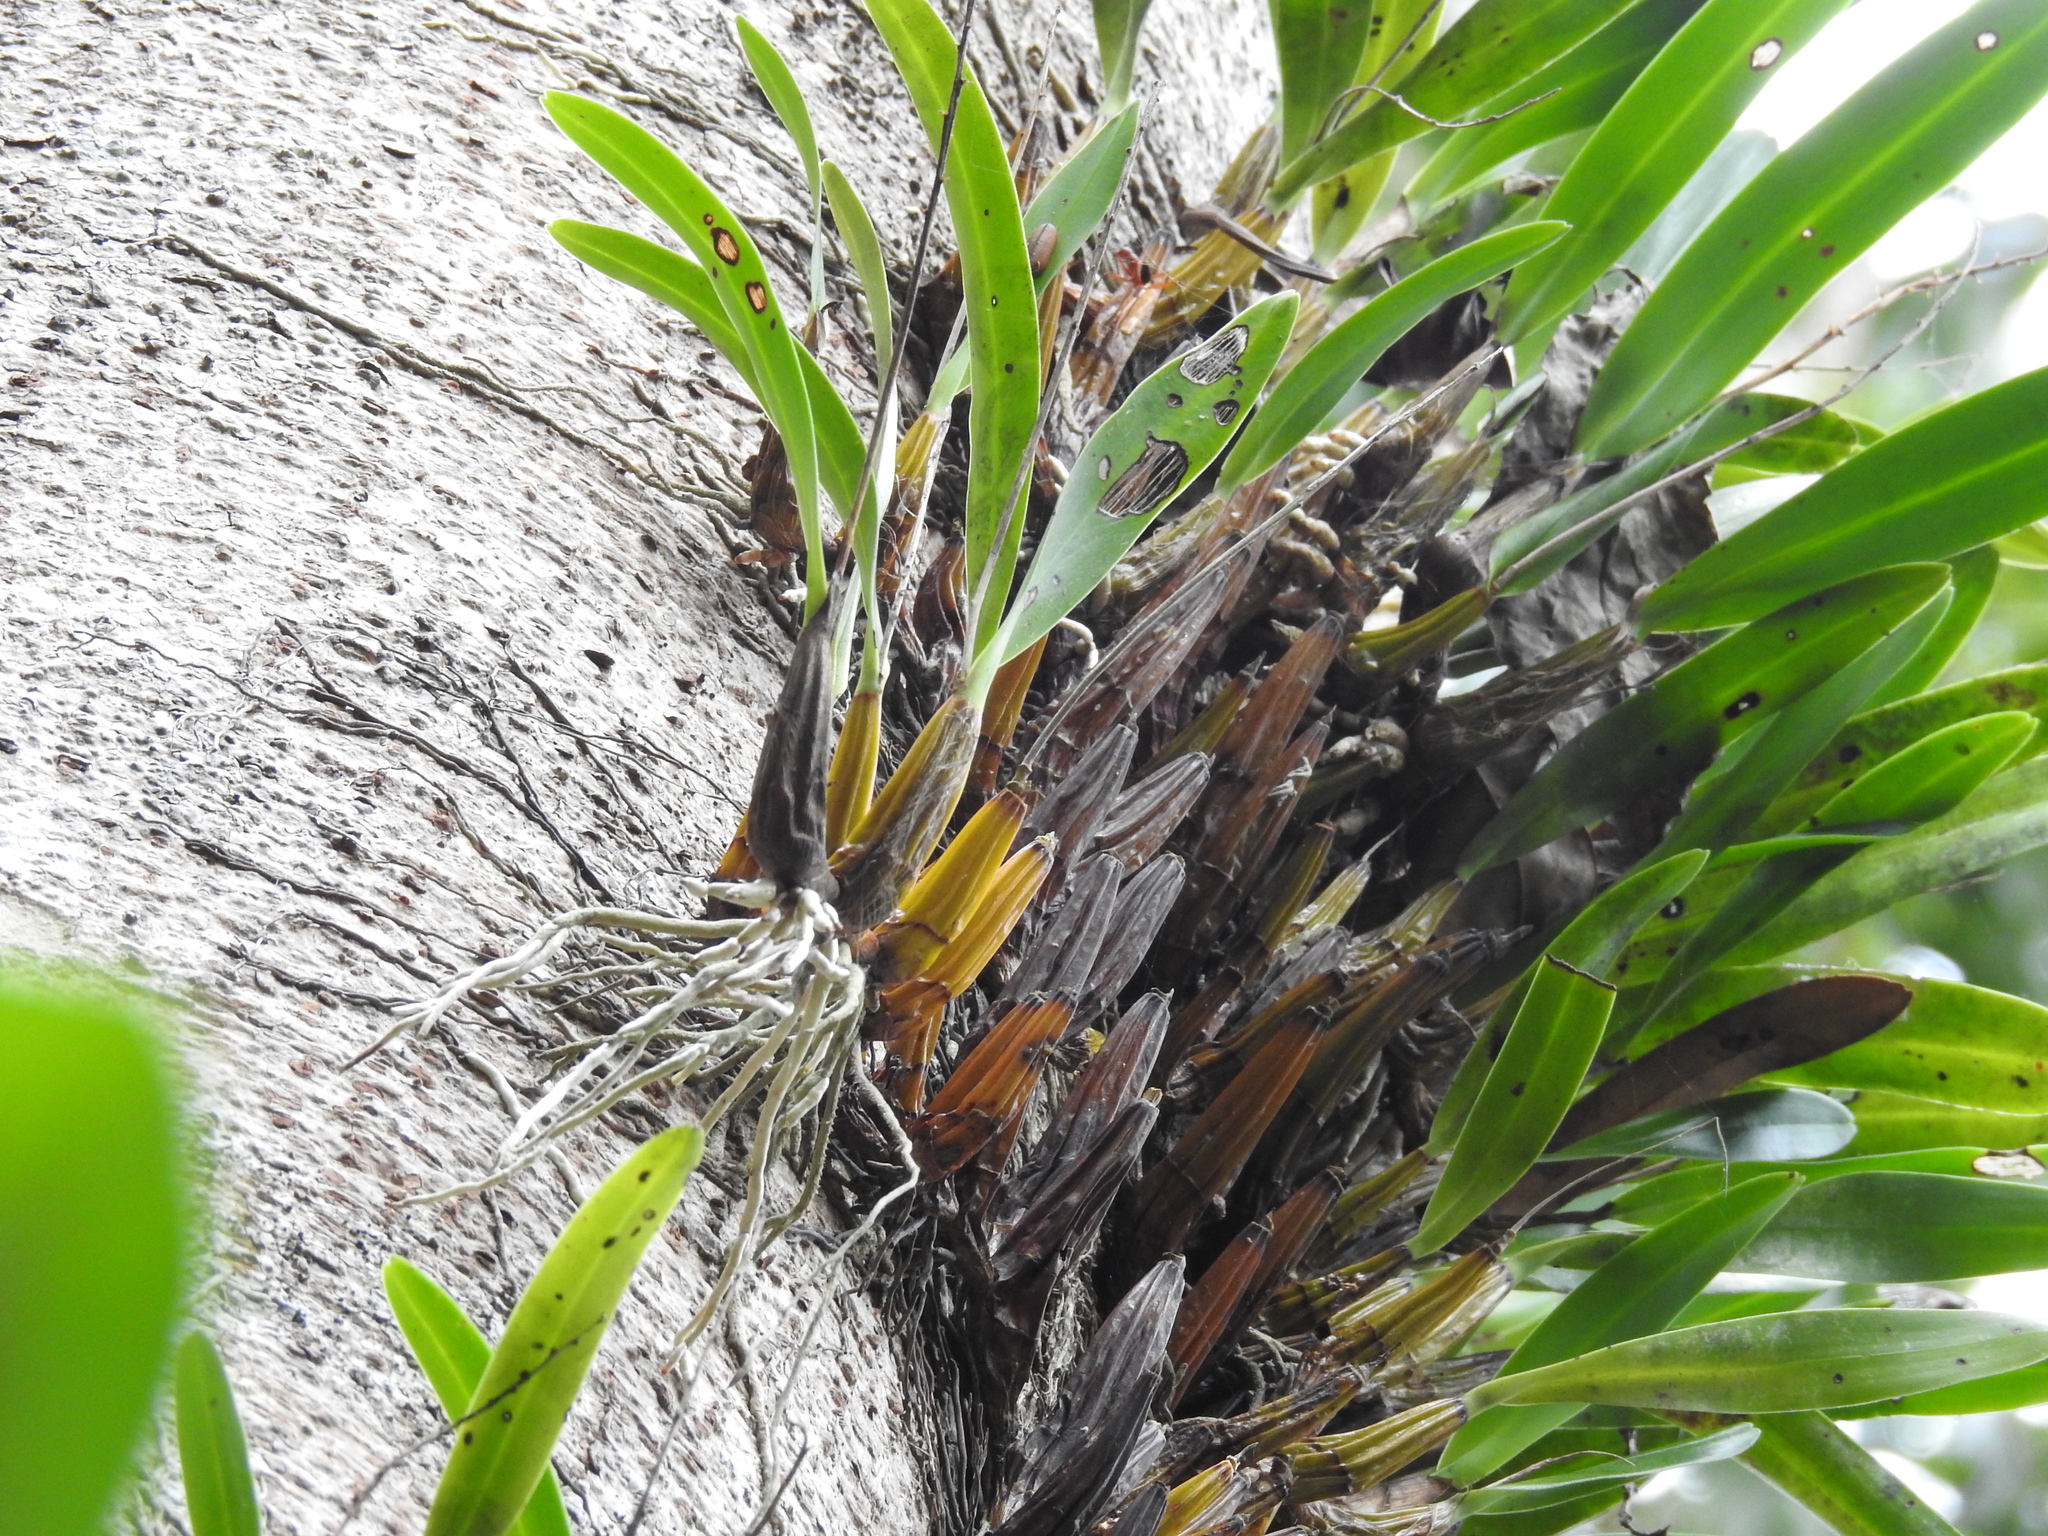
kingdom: Plantae
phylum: Tracheophyta
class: Liliopsida
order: Asparagales
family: Orchidaceae
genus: Dendrobium
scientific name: Dendrobium monophyllum
